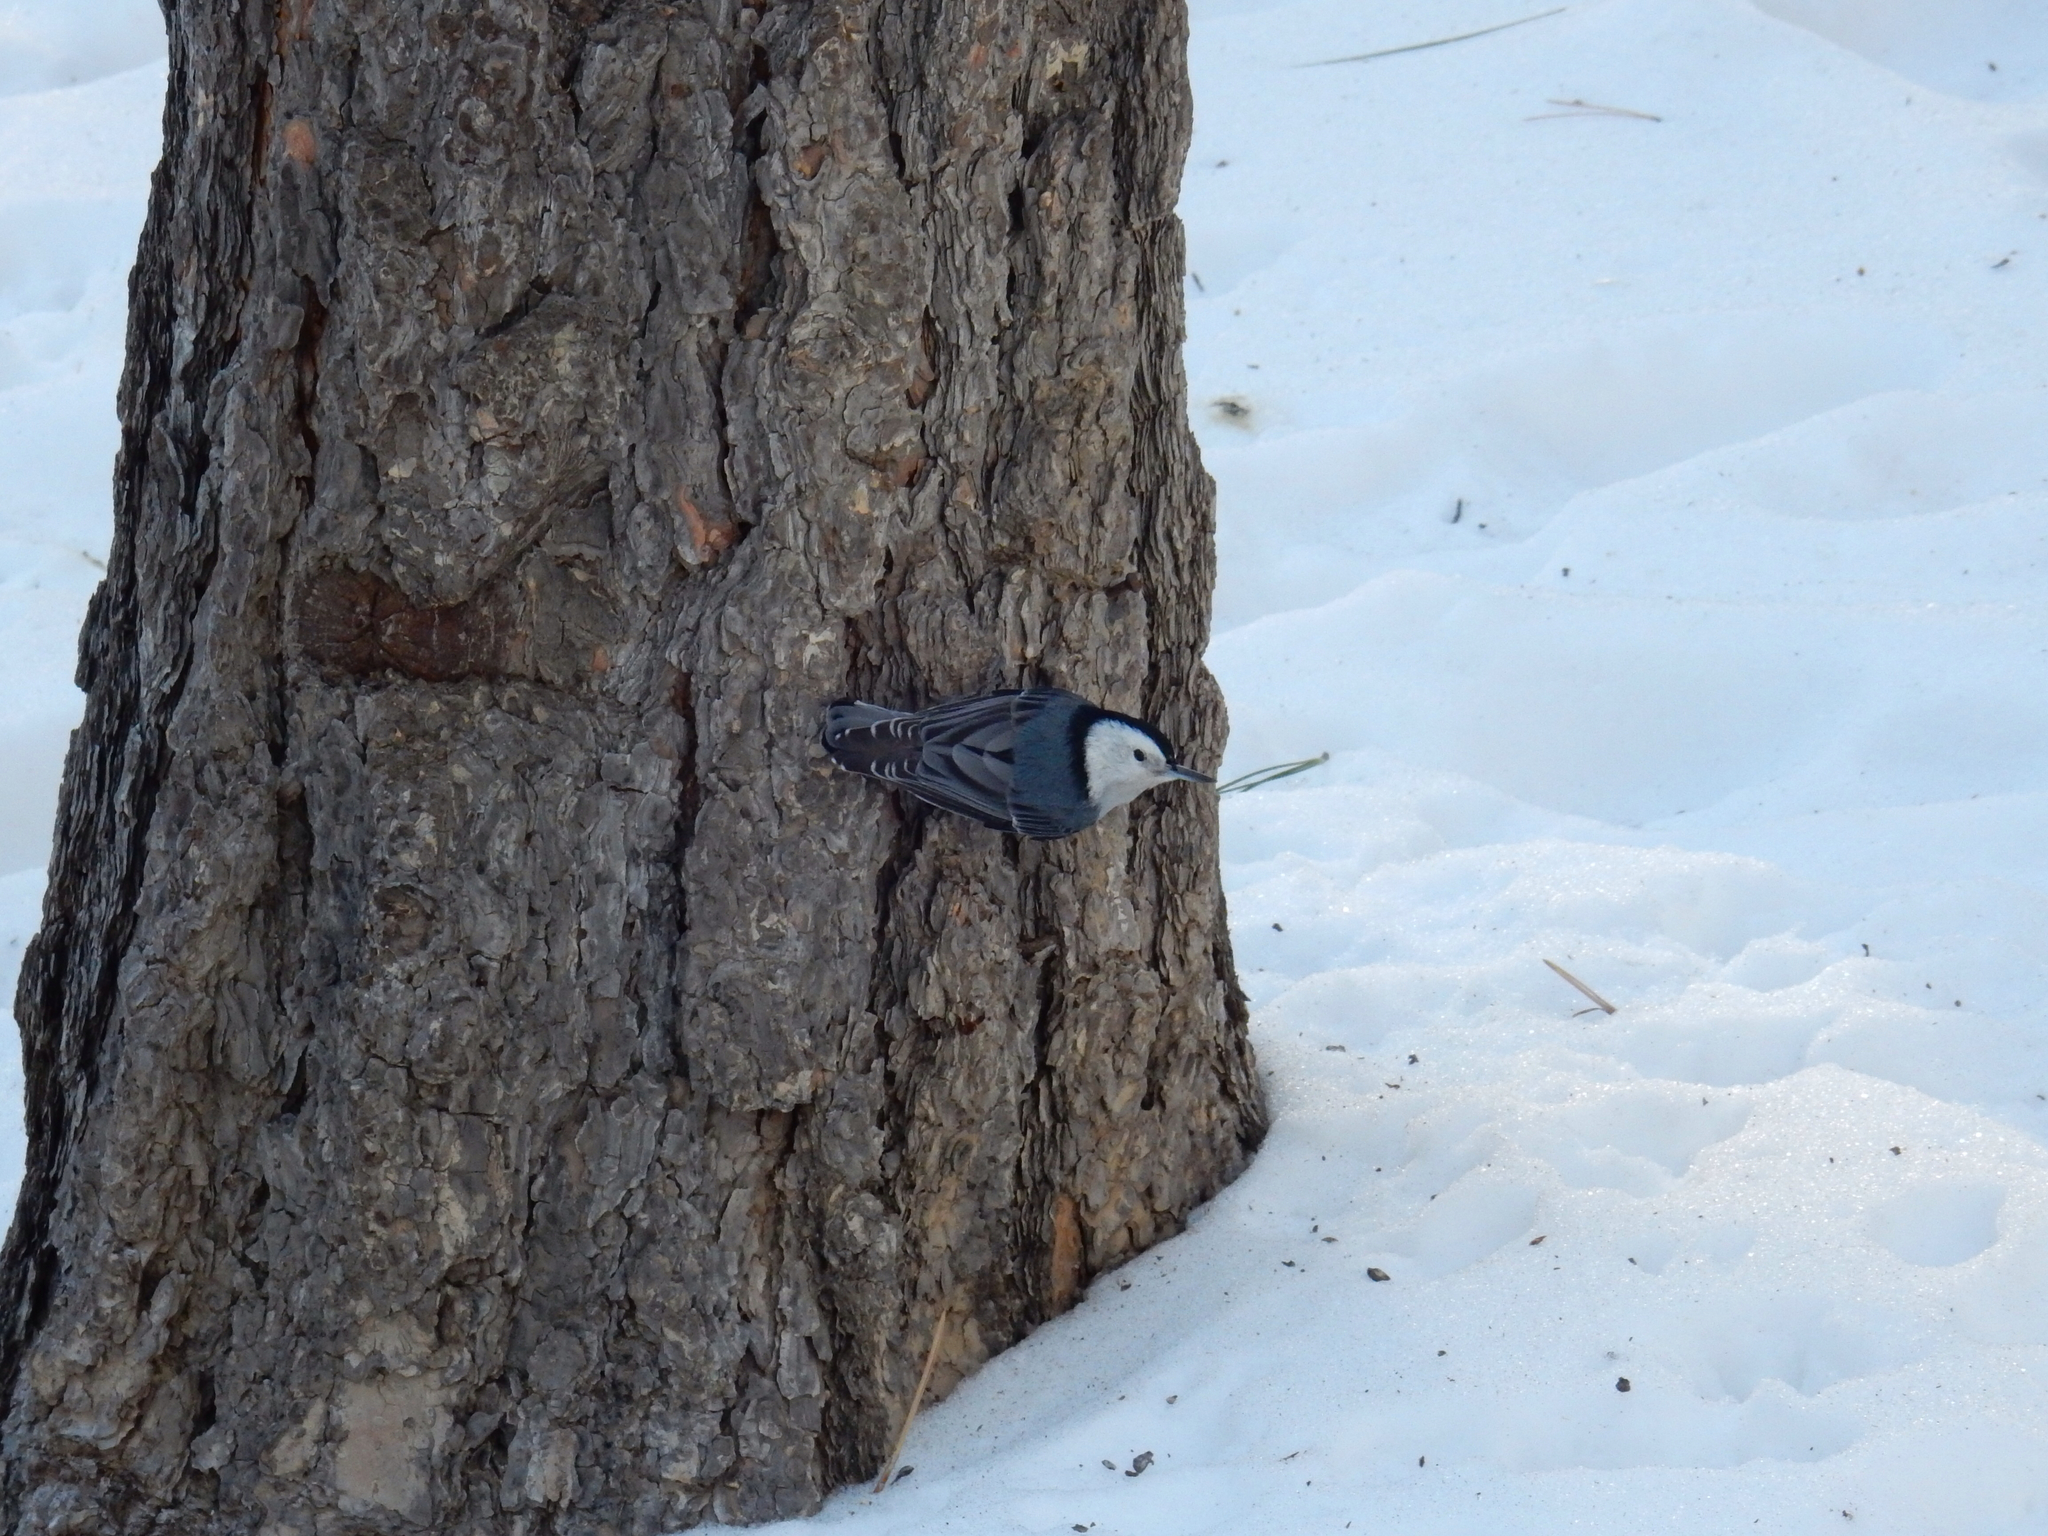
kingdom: Animalia
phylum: Chordata
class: Aves
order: Passeriformes
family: Sittidae
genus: Sitta
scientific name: Sitta carolinensis
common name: White-breasted nuthatch
